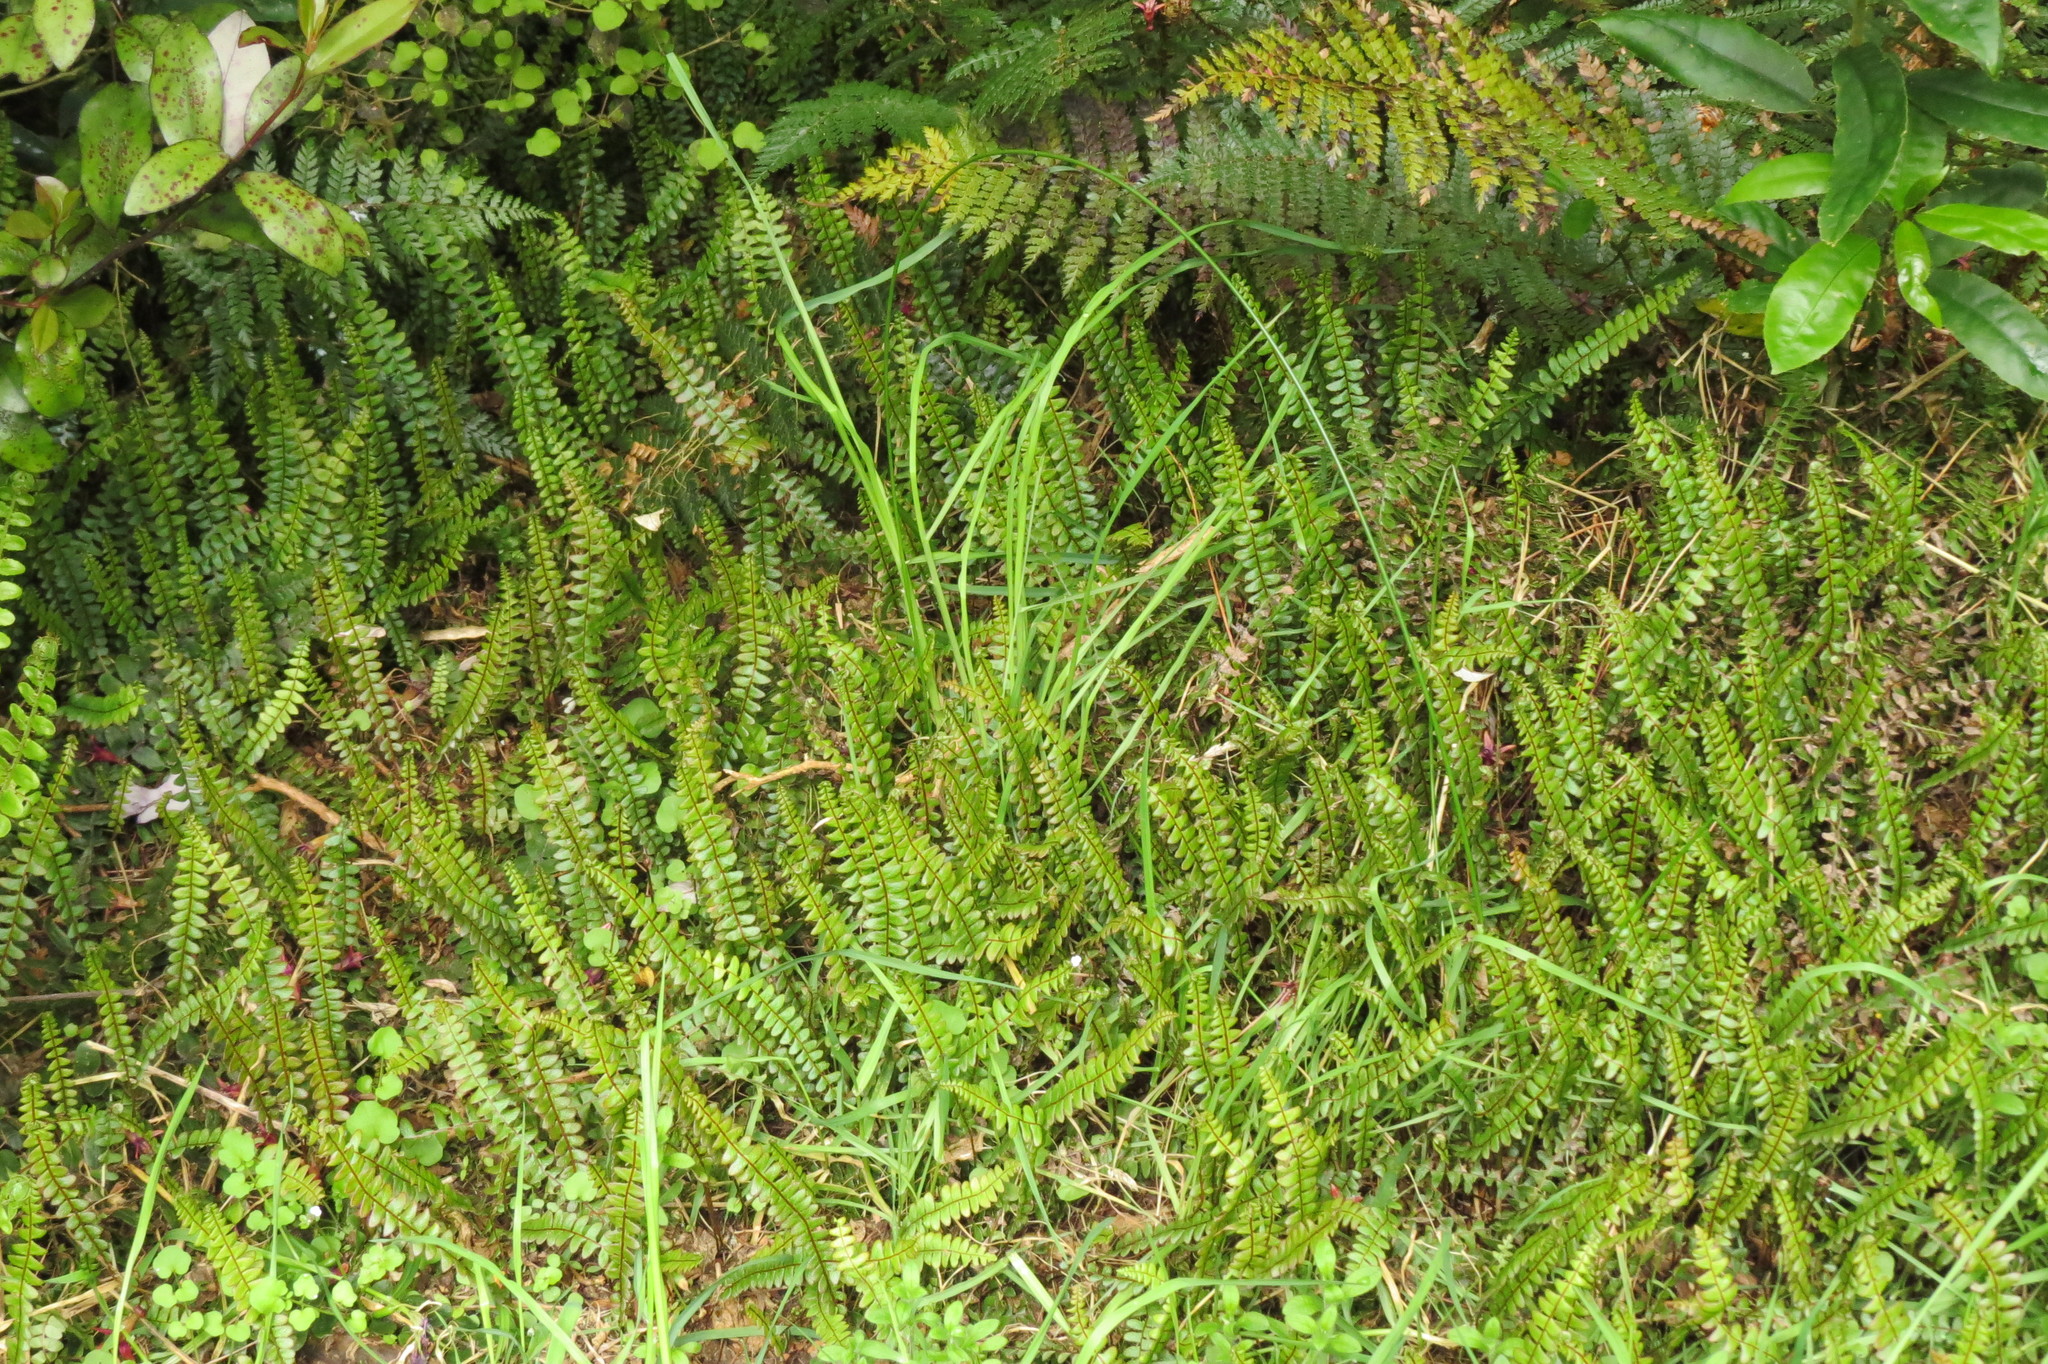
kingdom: Plantae
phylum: Tracheophyta
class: Polypodiopsida
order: Polypodiales
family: Blechnaceae
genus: Austroblechnum
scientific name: Austroblechnum penna-marina
